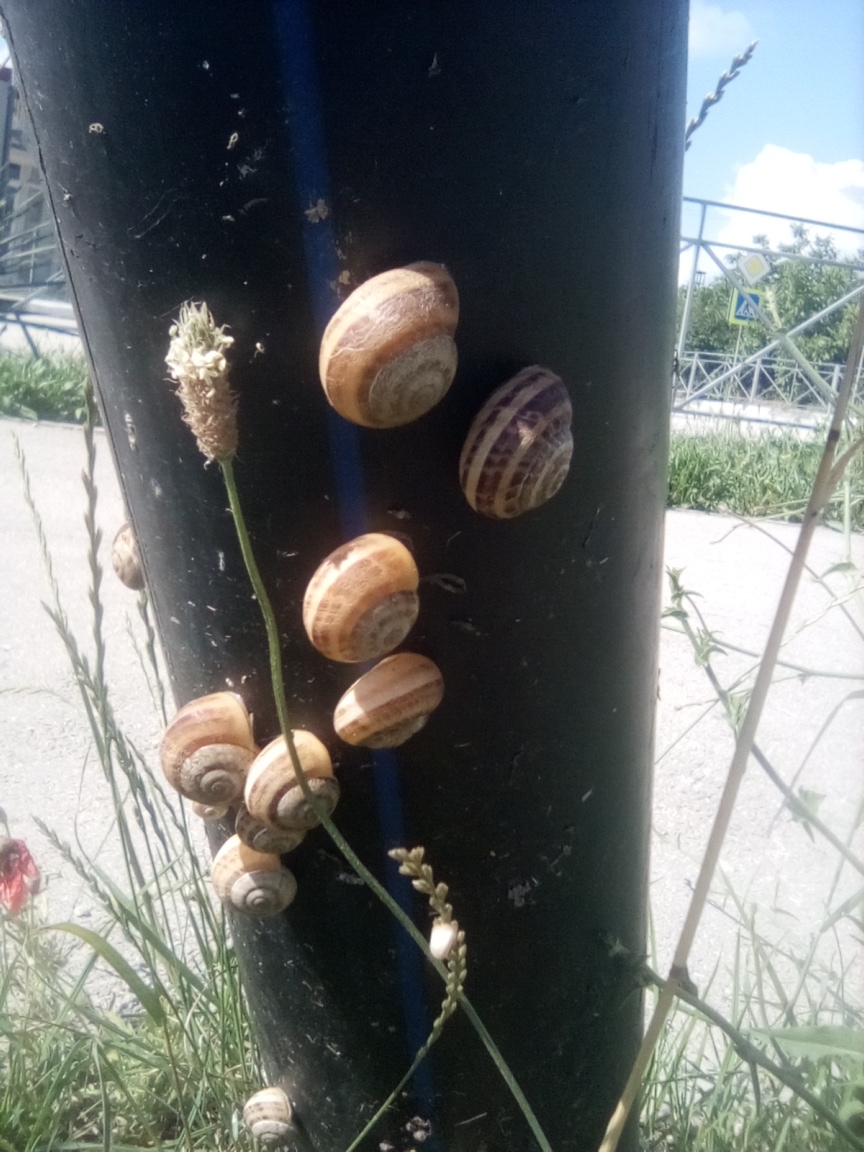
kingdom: Animalia
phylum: Mollusca
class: Gastropoda
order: Stylommatophora
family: Helicidae
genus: Eobania
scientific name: Eobania vermiculata
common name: Chocolateband snail
